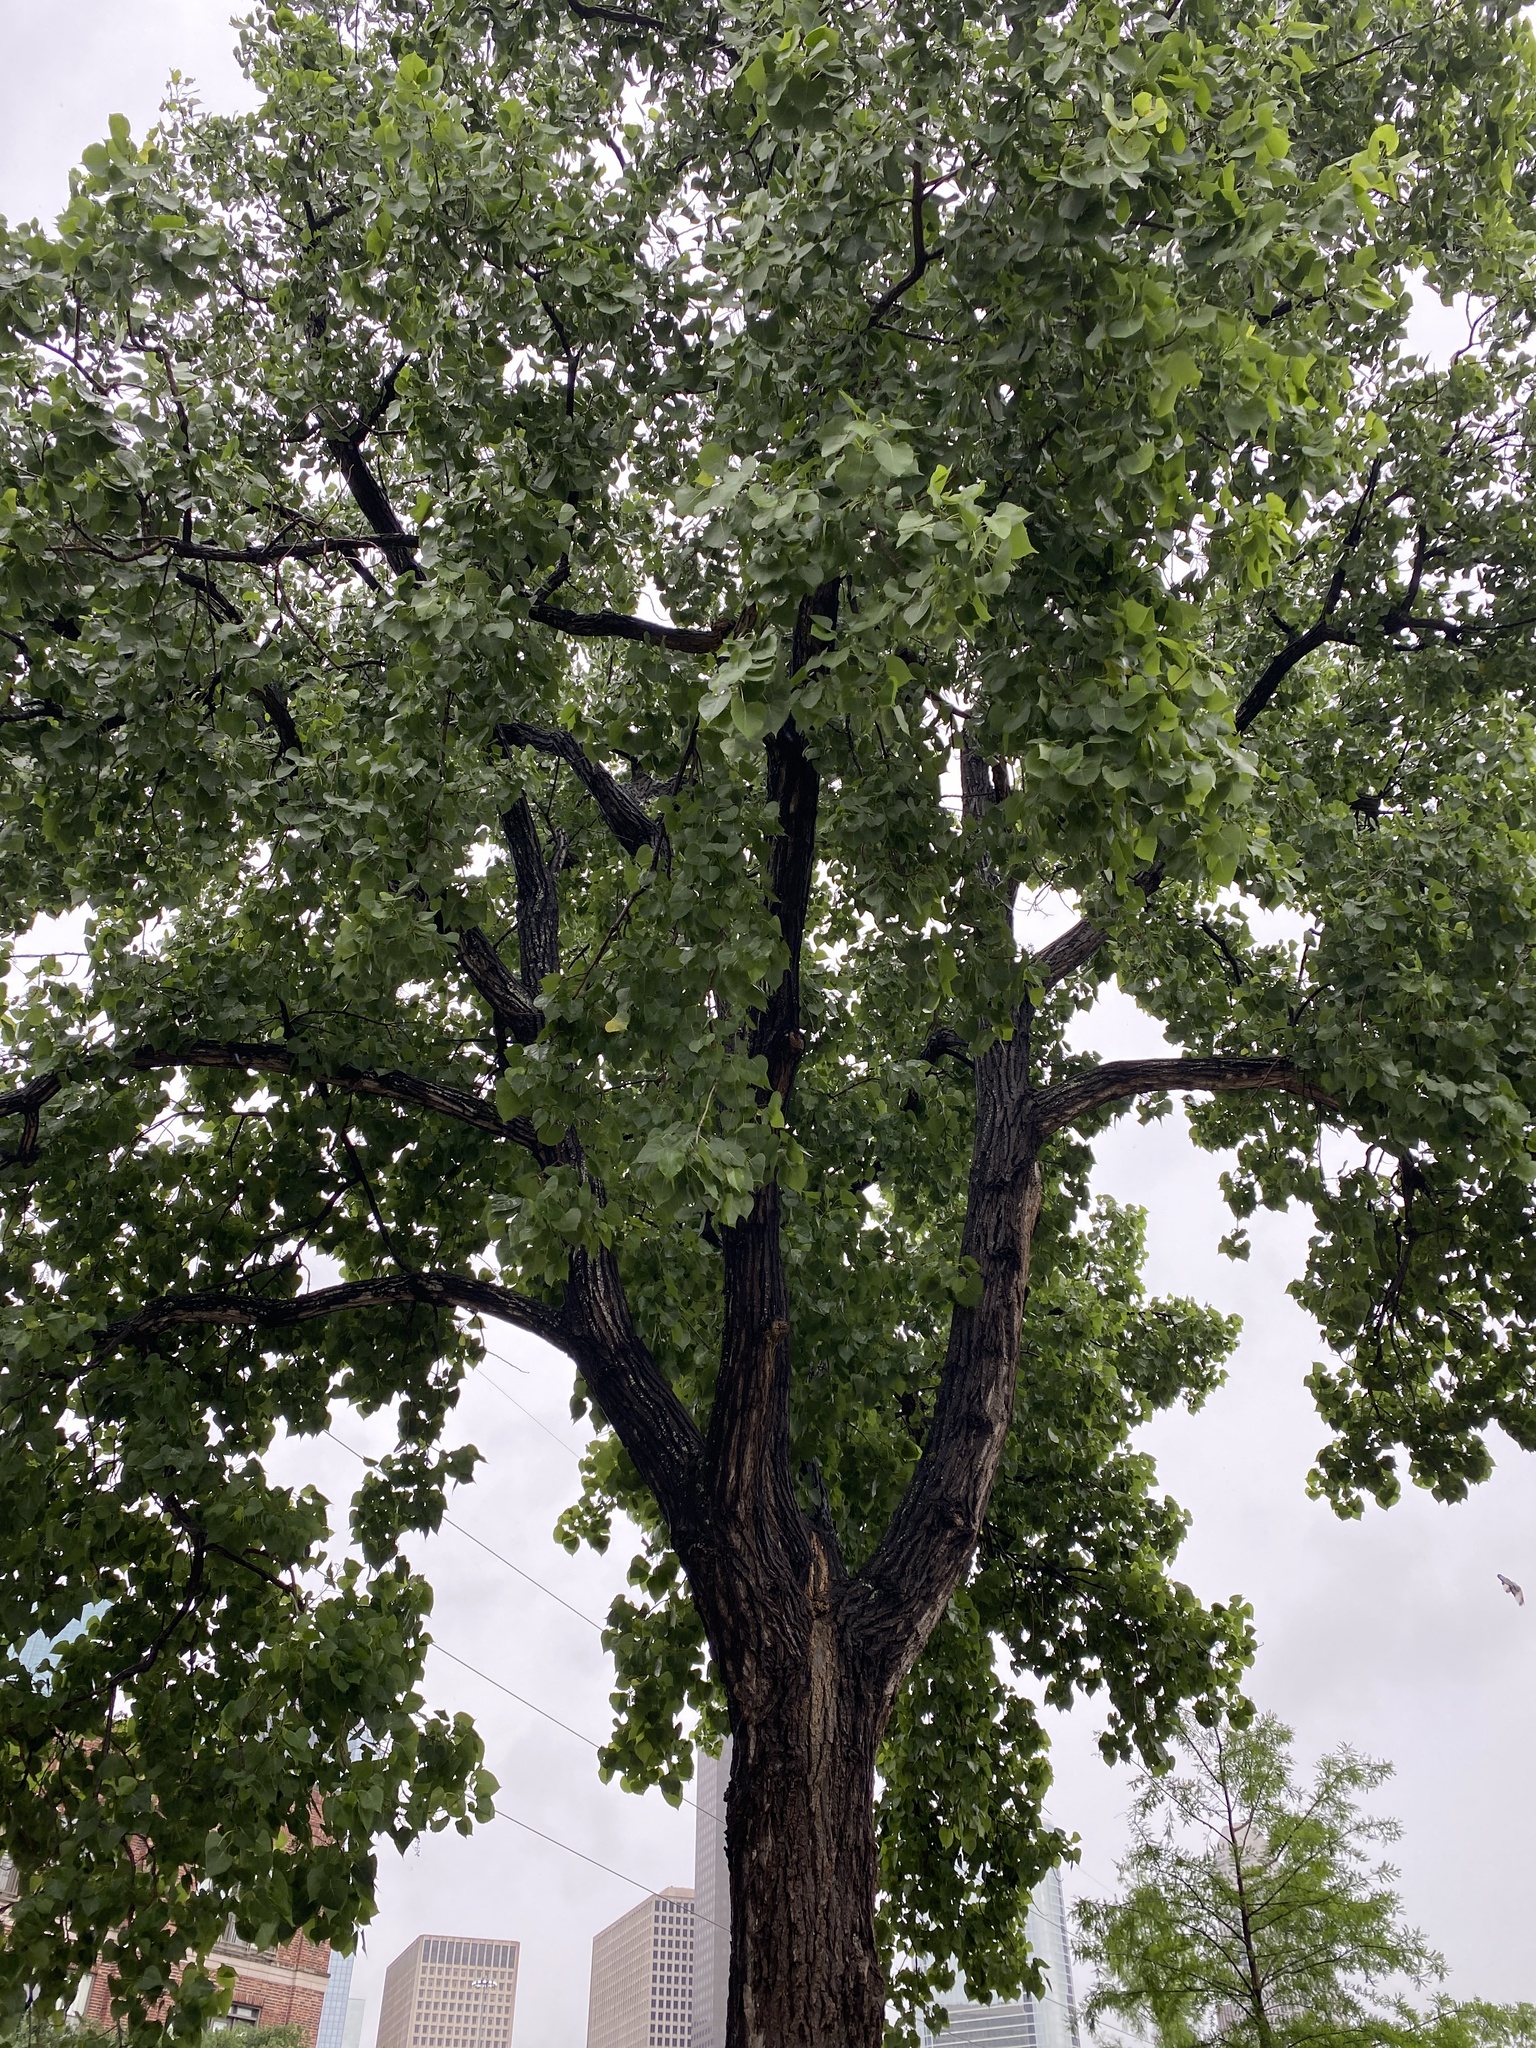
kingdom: Plantae
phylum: Tracheophyta
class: Magnoliopsida
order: Malpighiales
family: Salicaceae
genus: Populus
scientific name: Populus deltoides
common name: Eastern cottonwood
